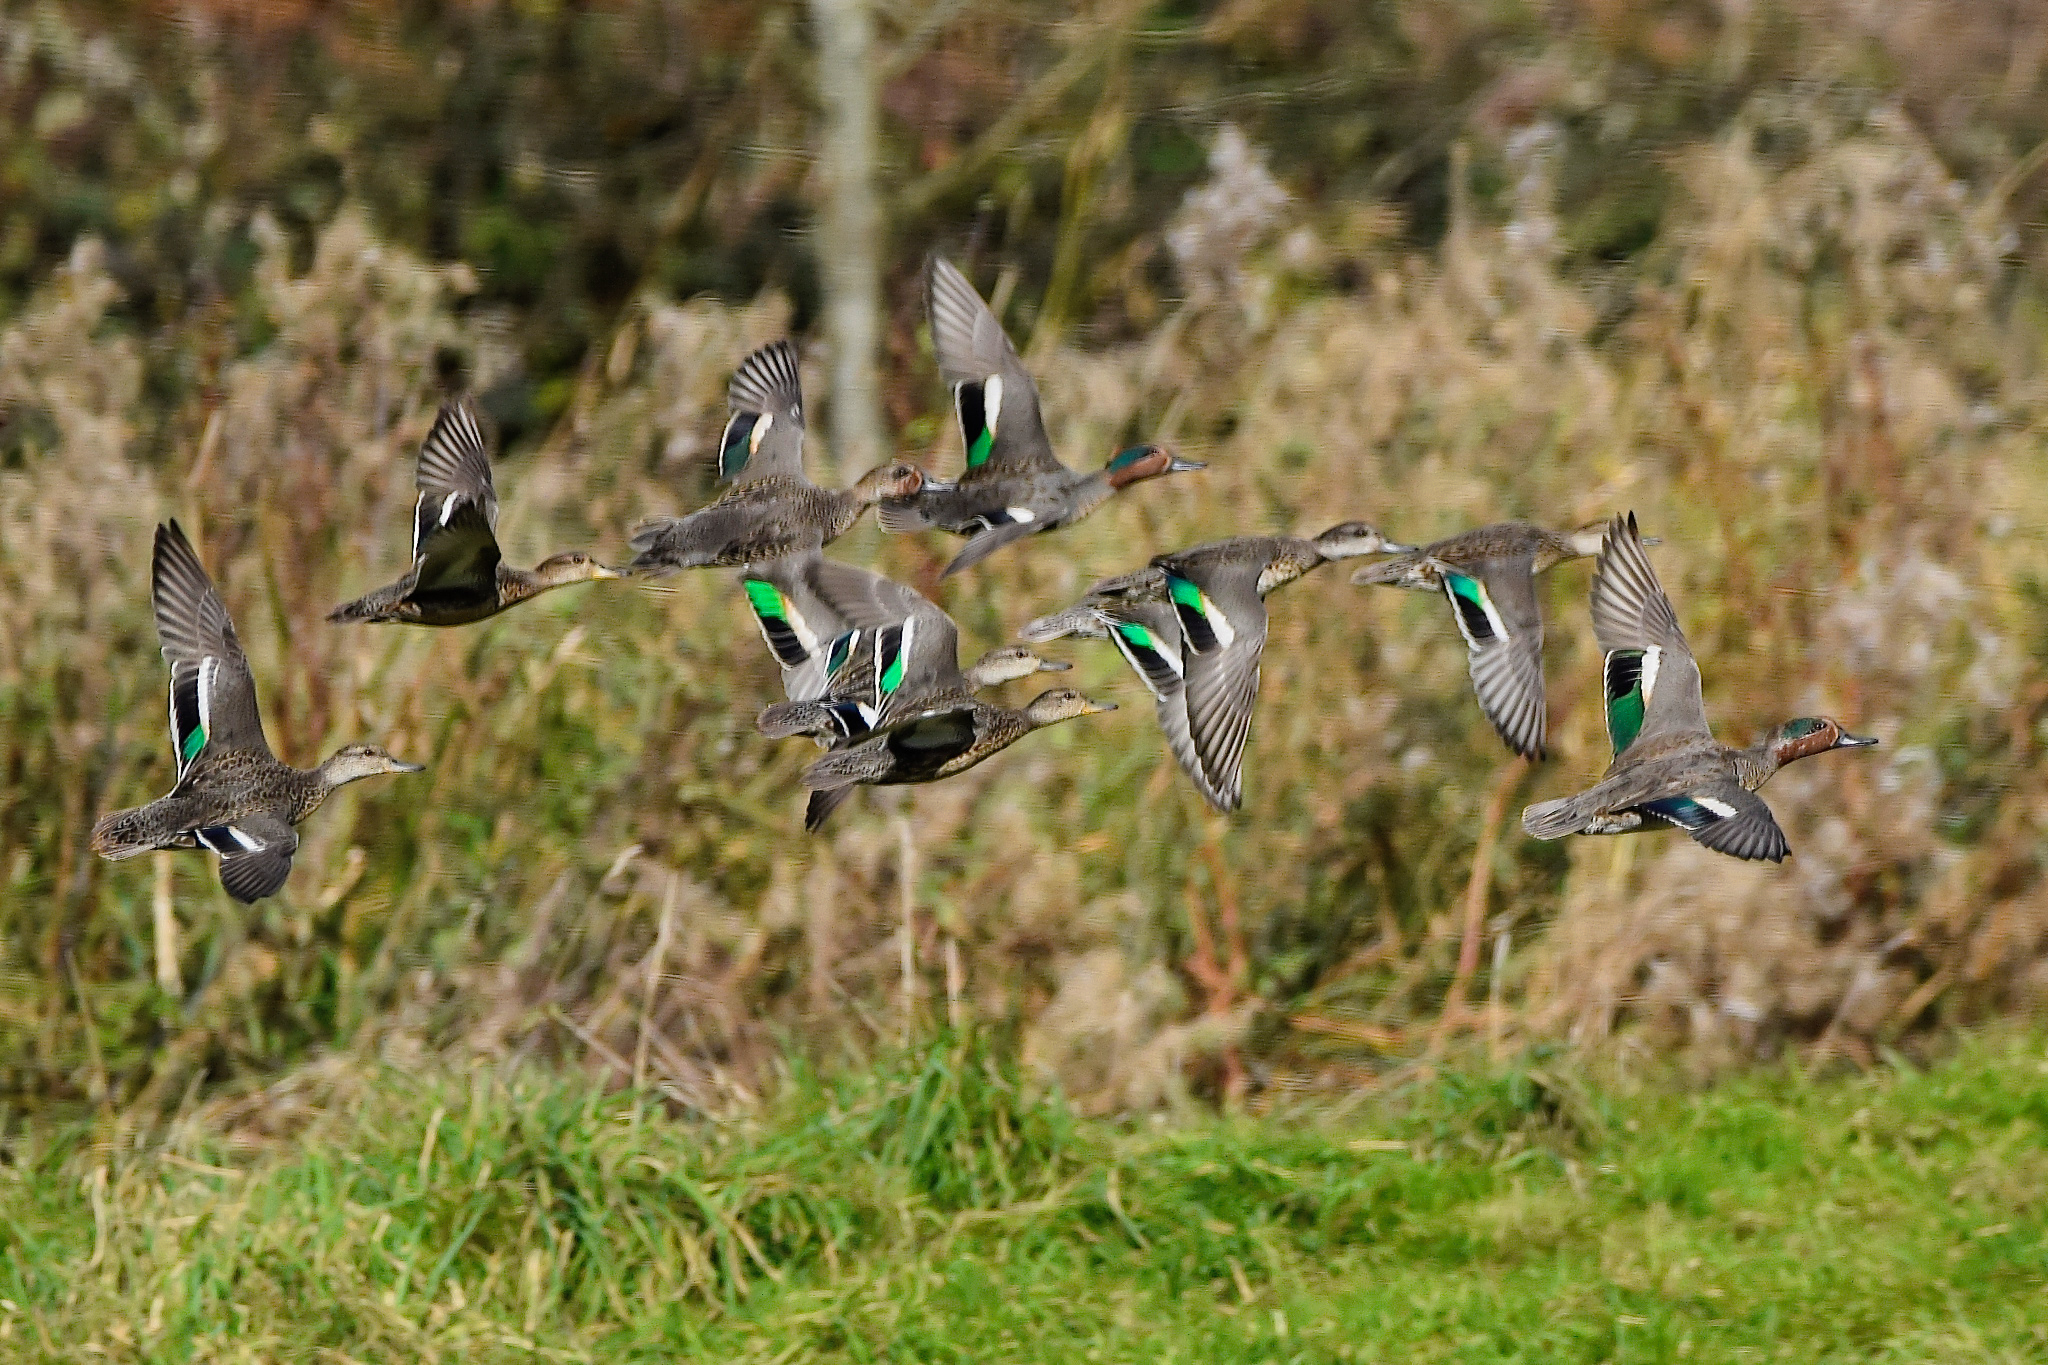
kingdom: Animalia
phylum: Chordata
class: Aves
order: Anseriformes
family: Anatidae
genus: Anas
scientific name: Anas crecca
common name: Eurasian teal
